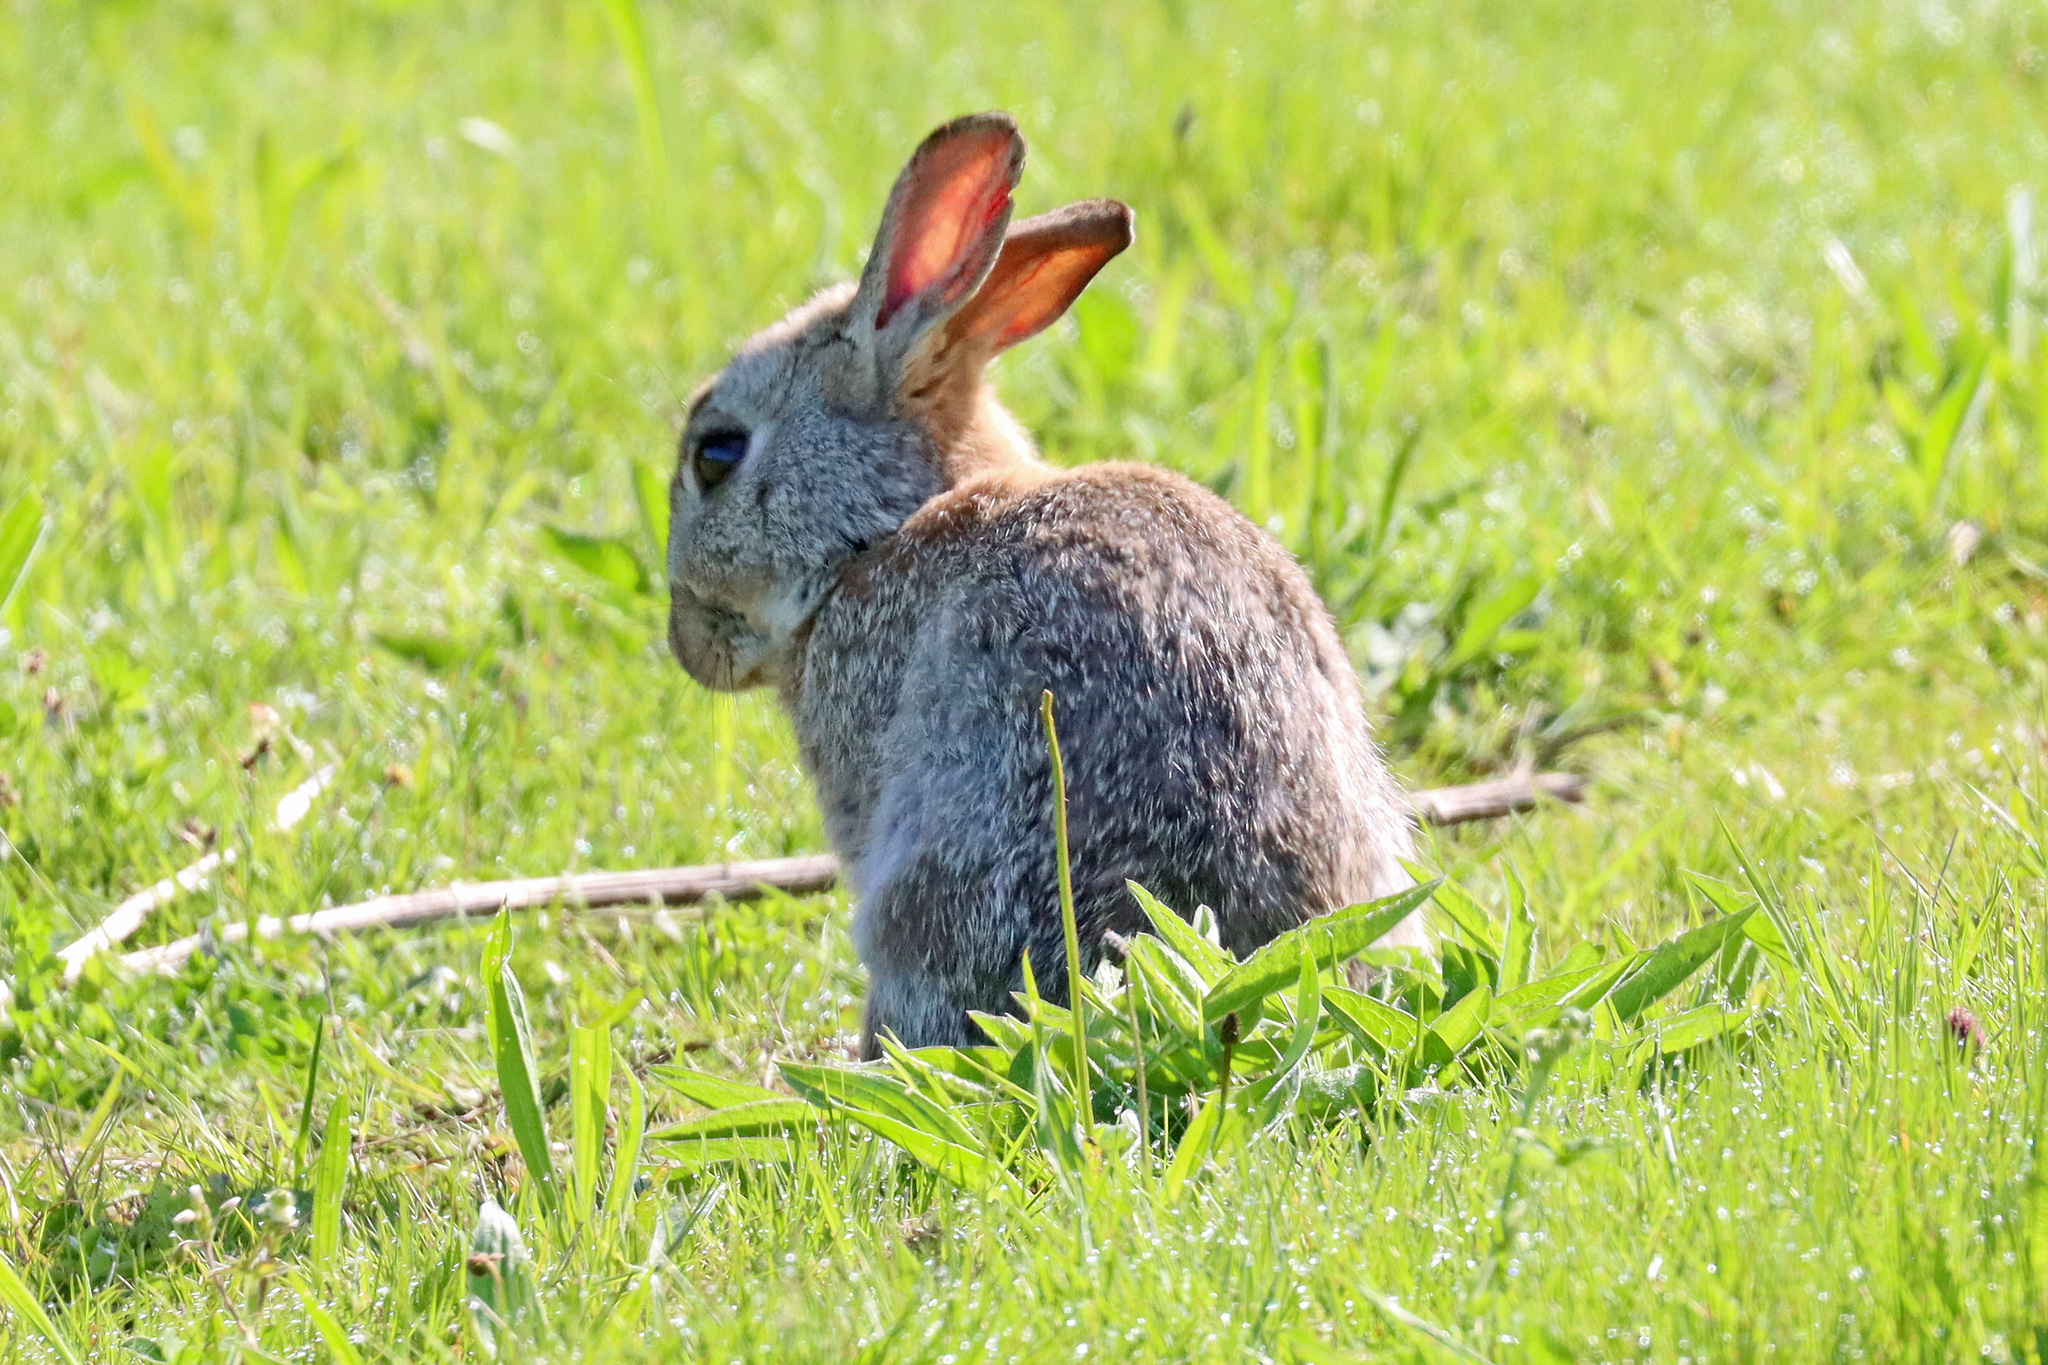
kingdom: Animalia
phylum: Chordata
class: Mammalia
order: Lagomorpha
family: Leporidae
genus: Oryctolagus
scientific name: Oryctolagus cuniculus
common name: European rabbit
